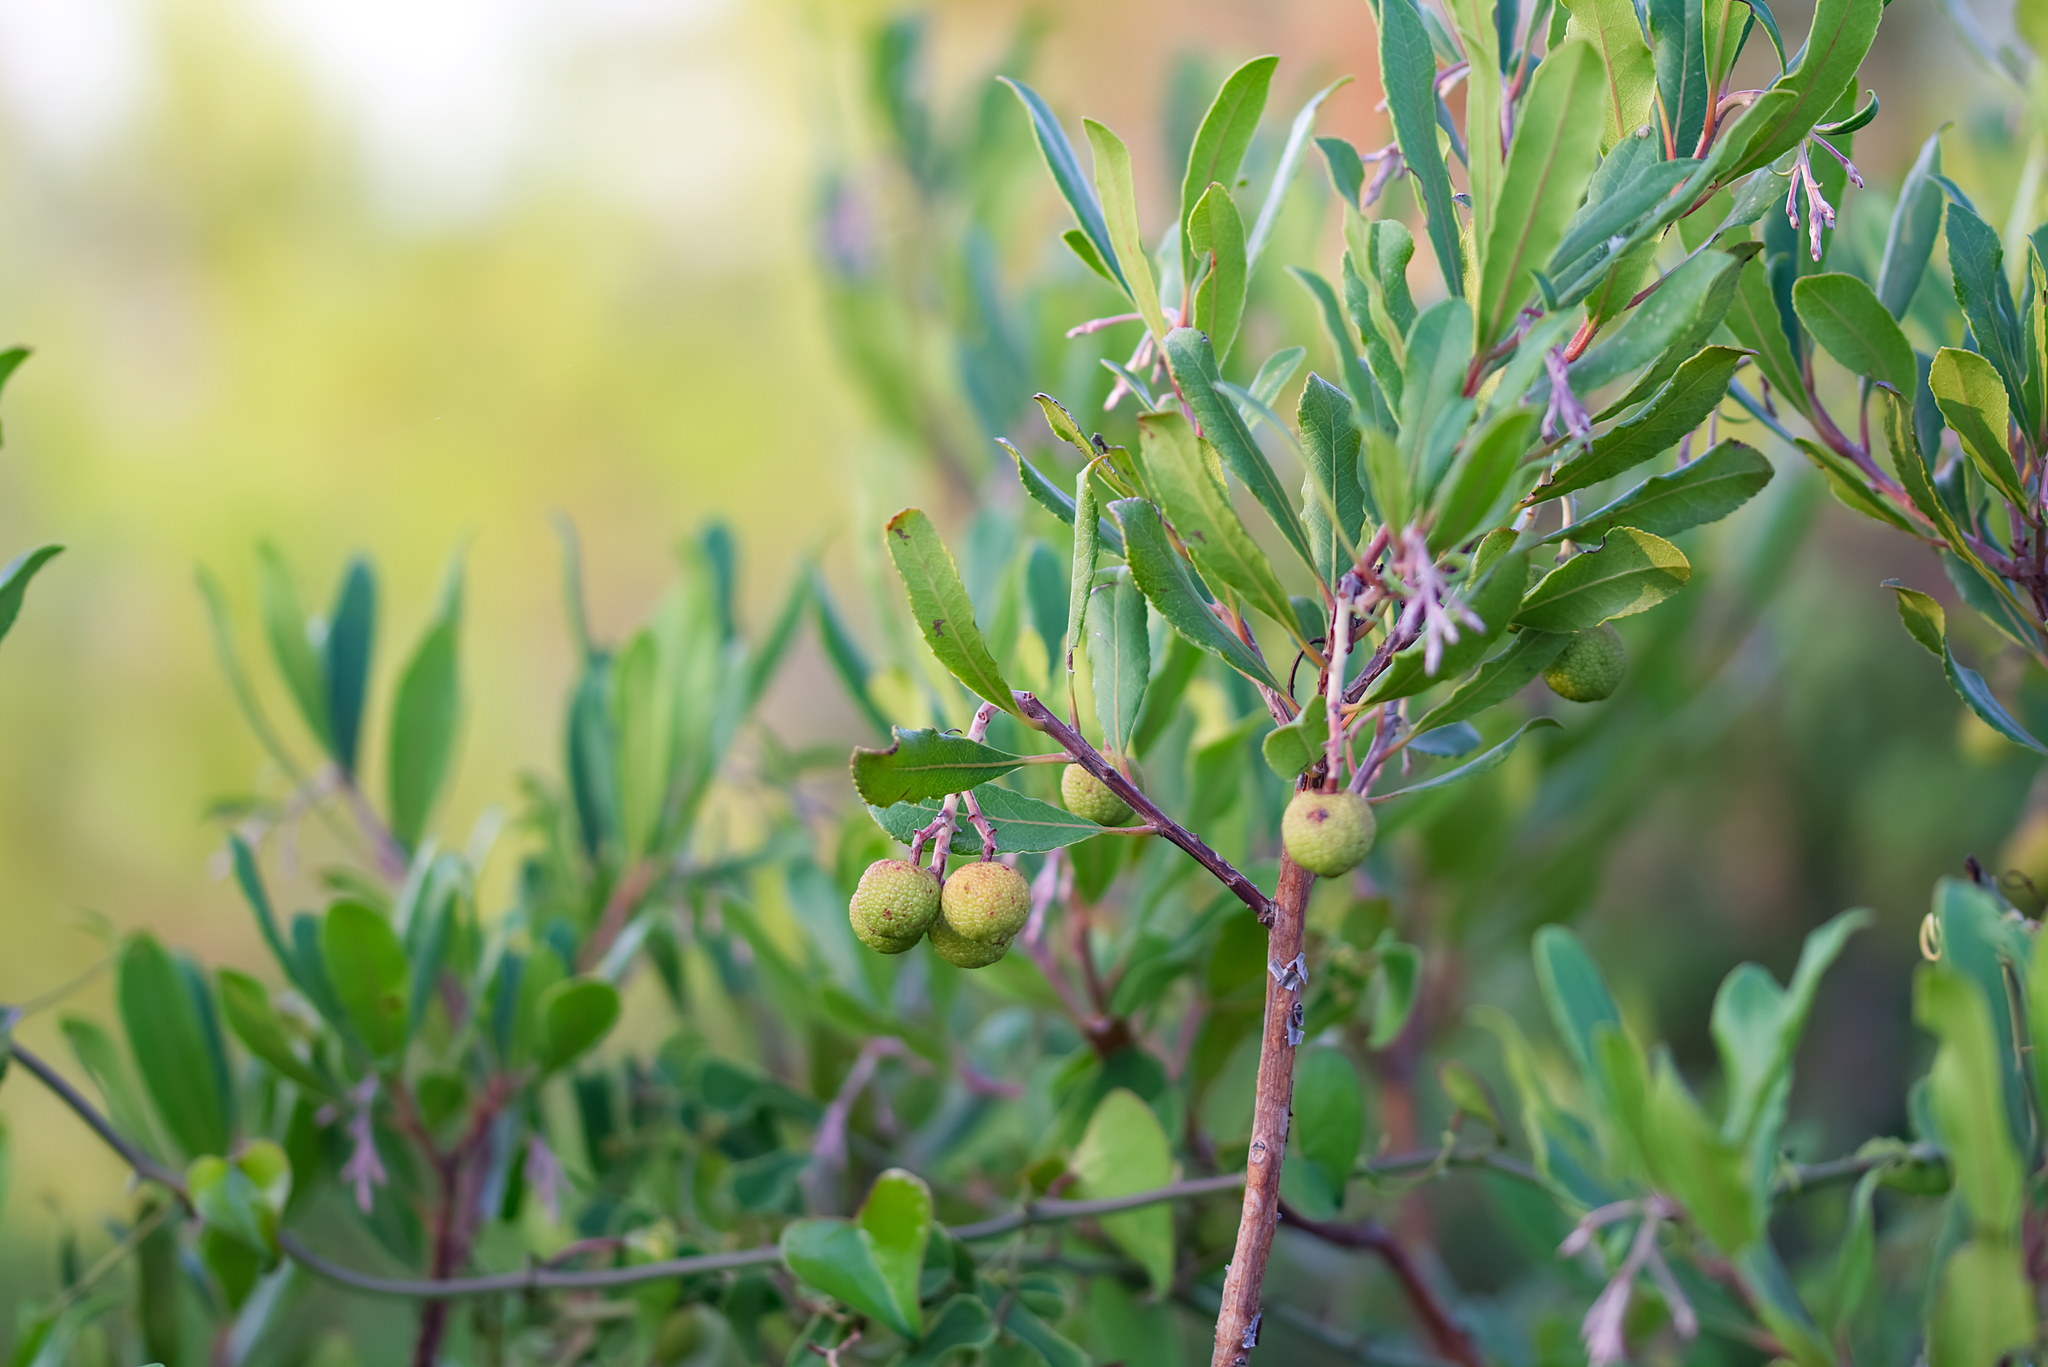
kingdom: Plantae
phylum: Tracheophyta
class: Magnoliopsida
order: Ericales
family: Ericaceae
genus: Arbutus
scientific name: Arbutus unedo
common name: Strawberry-tree
